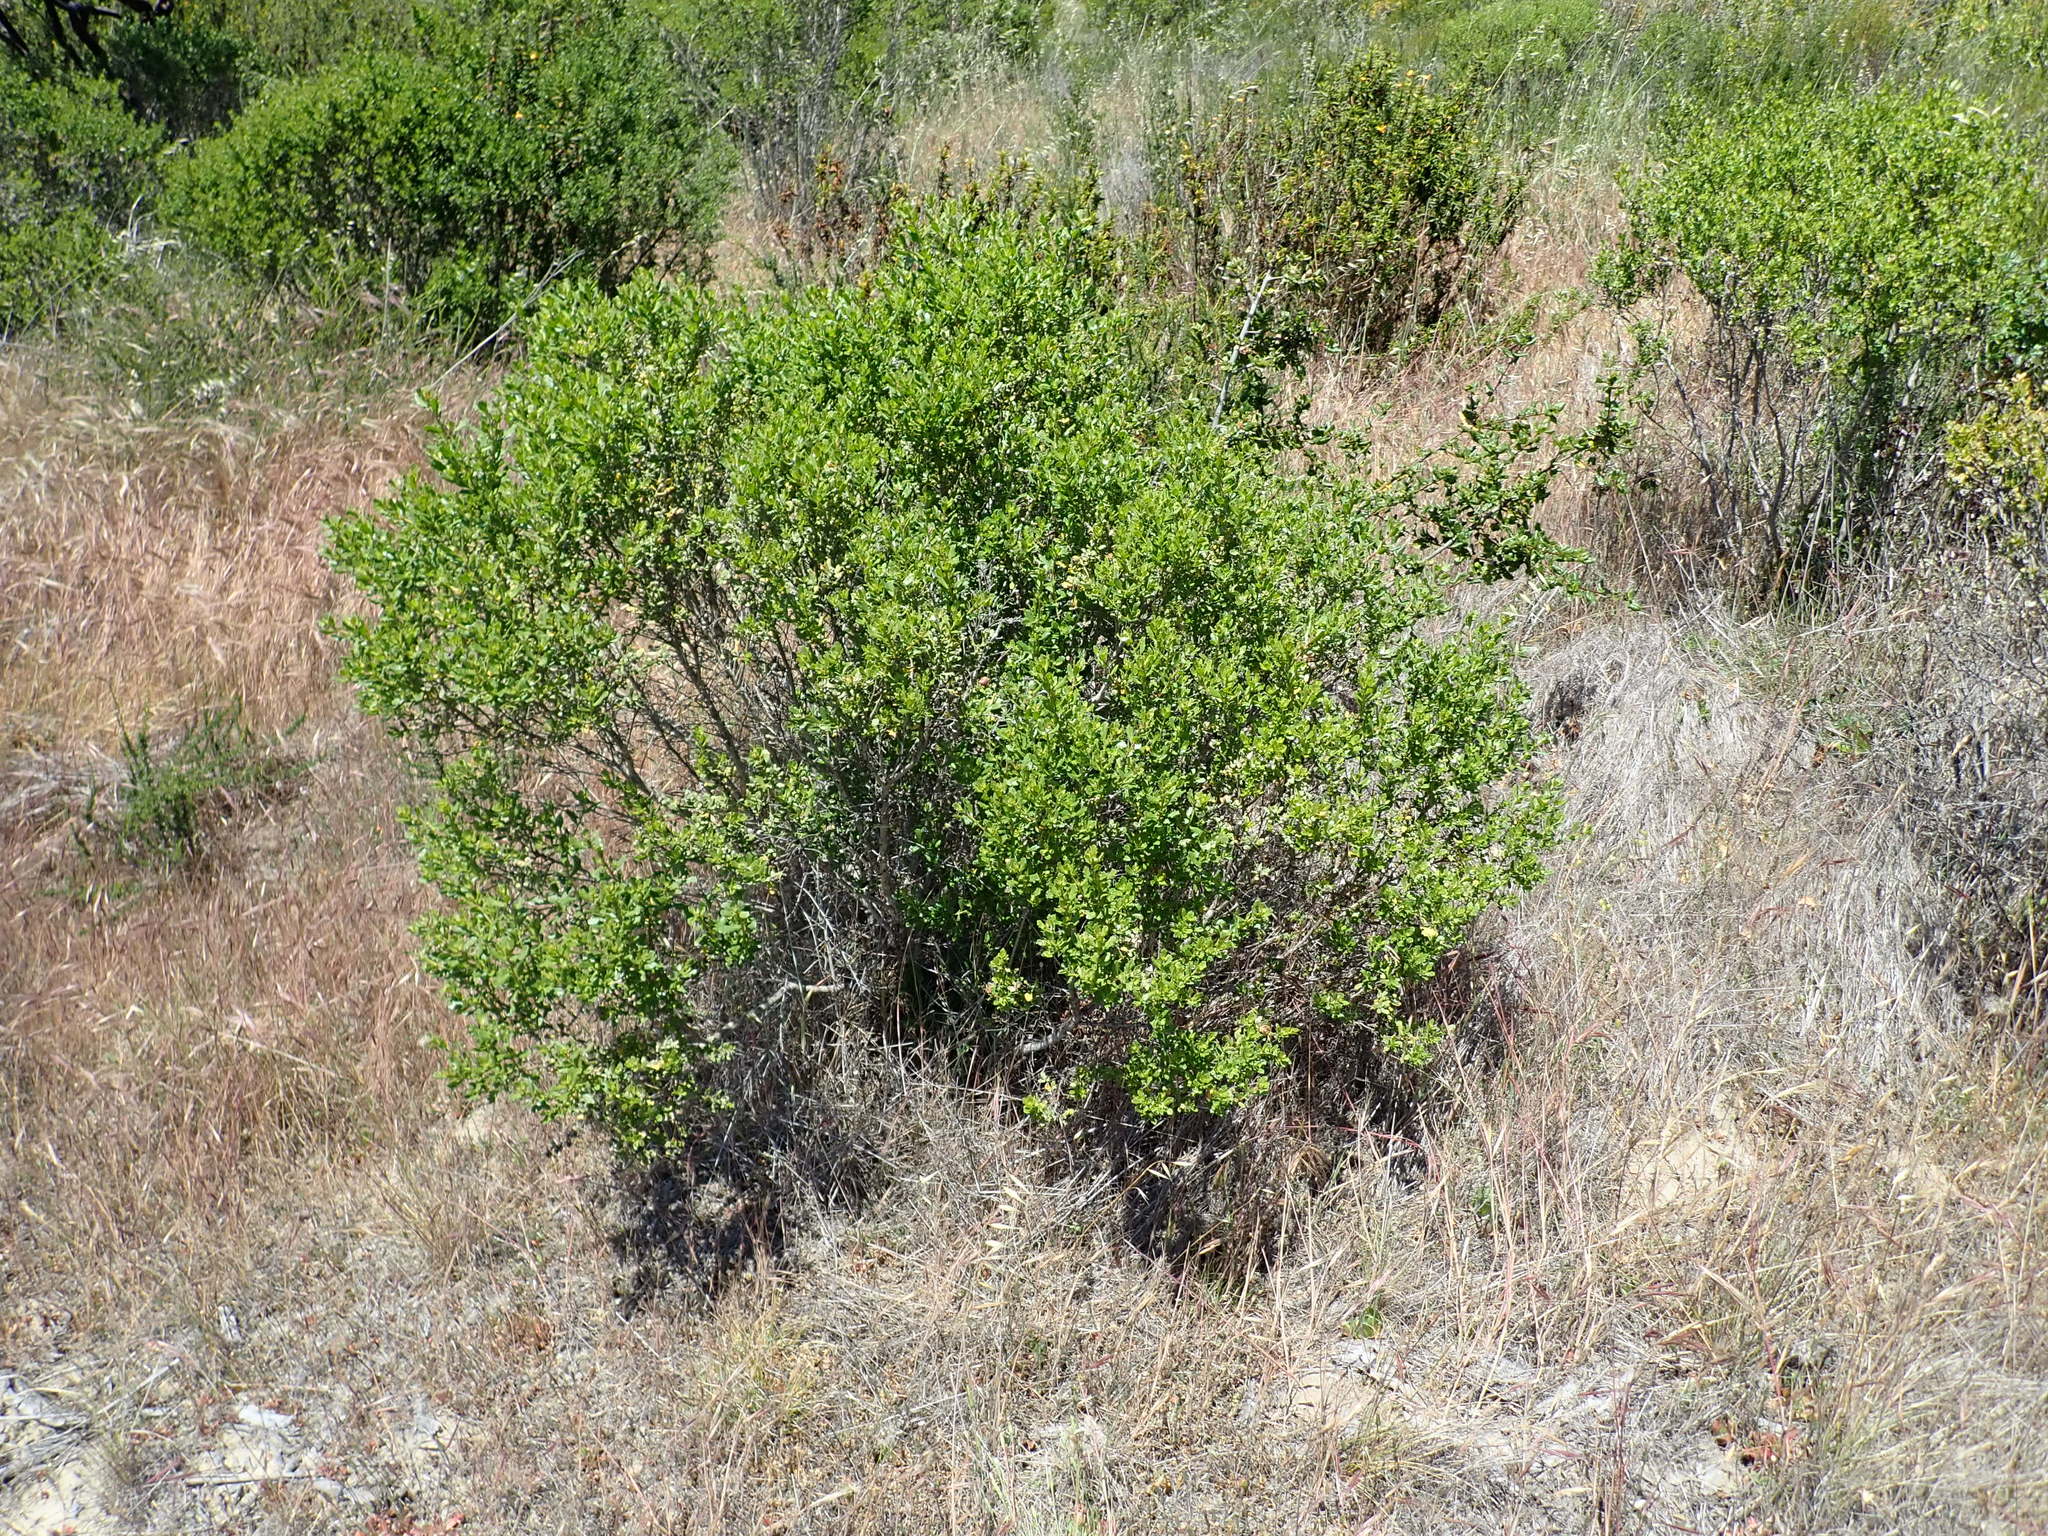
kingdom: Plantae
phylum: Tracheophyta
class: Magnoliopsida
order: Asterales
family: Asteraceae
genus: Baccharis
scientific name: Baccharis pilularis
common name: Coyotebrush
